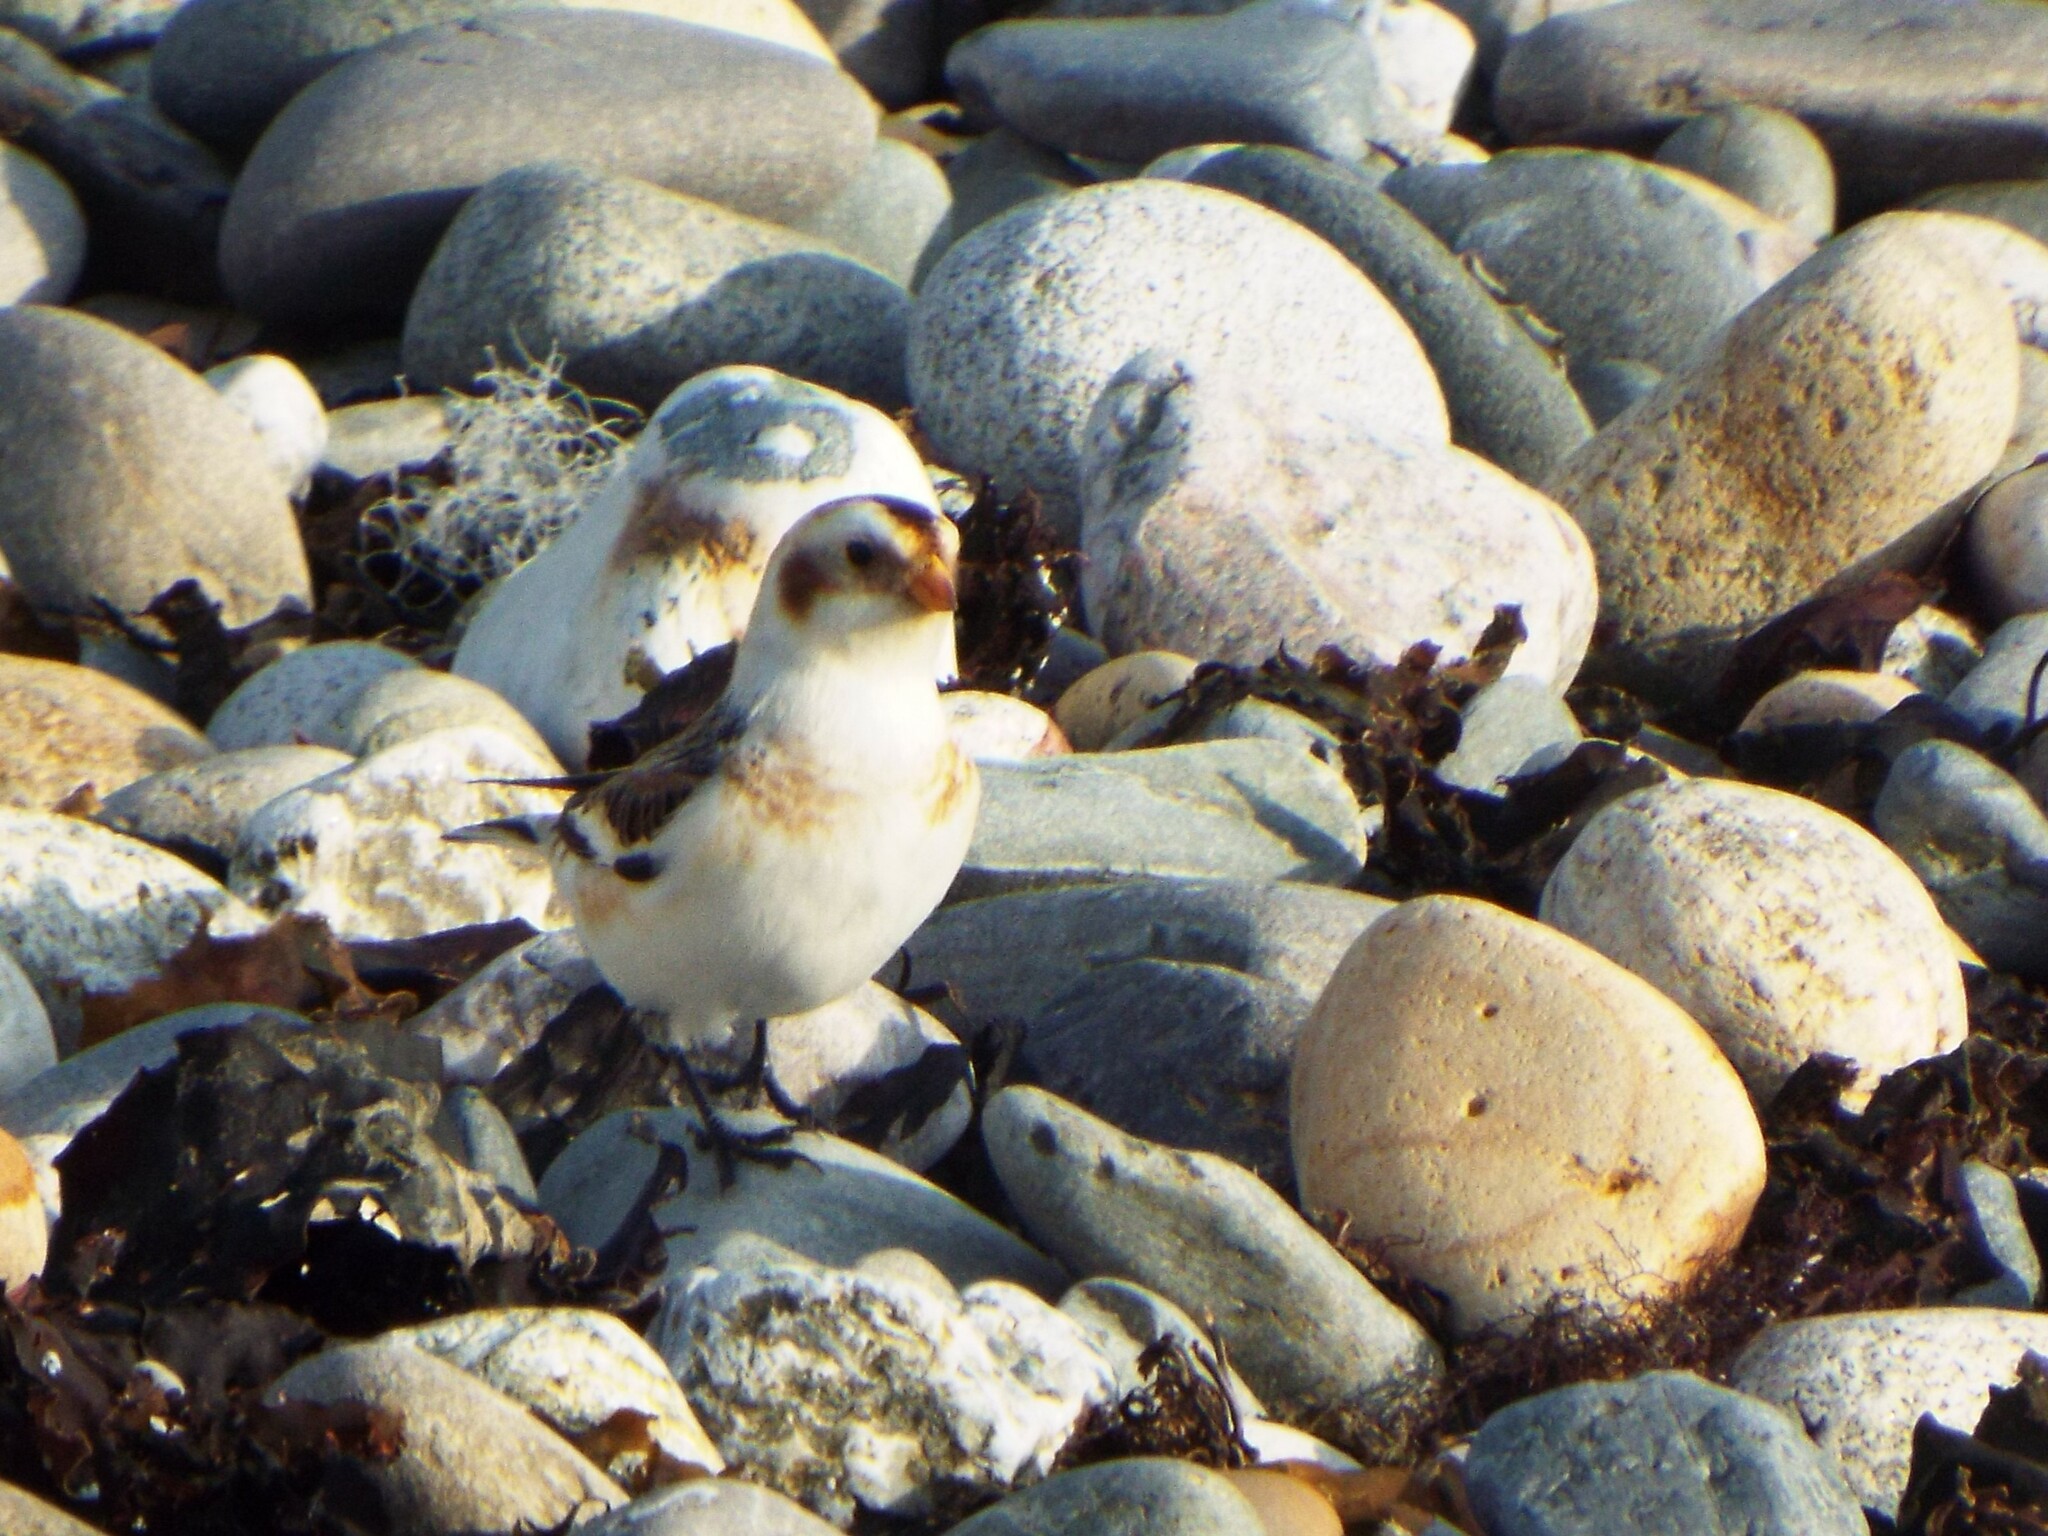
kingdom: Animalia
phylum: Chordata
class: Aves
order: Passeriformes
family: Calcariidae
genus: Plectrophenax
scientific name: Plectrophenax nivalis
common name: Snow bunting
